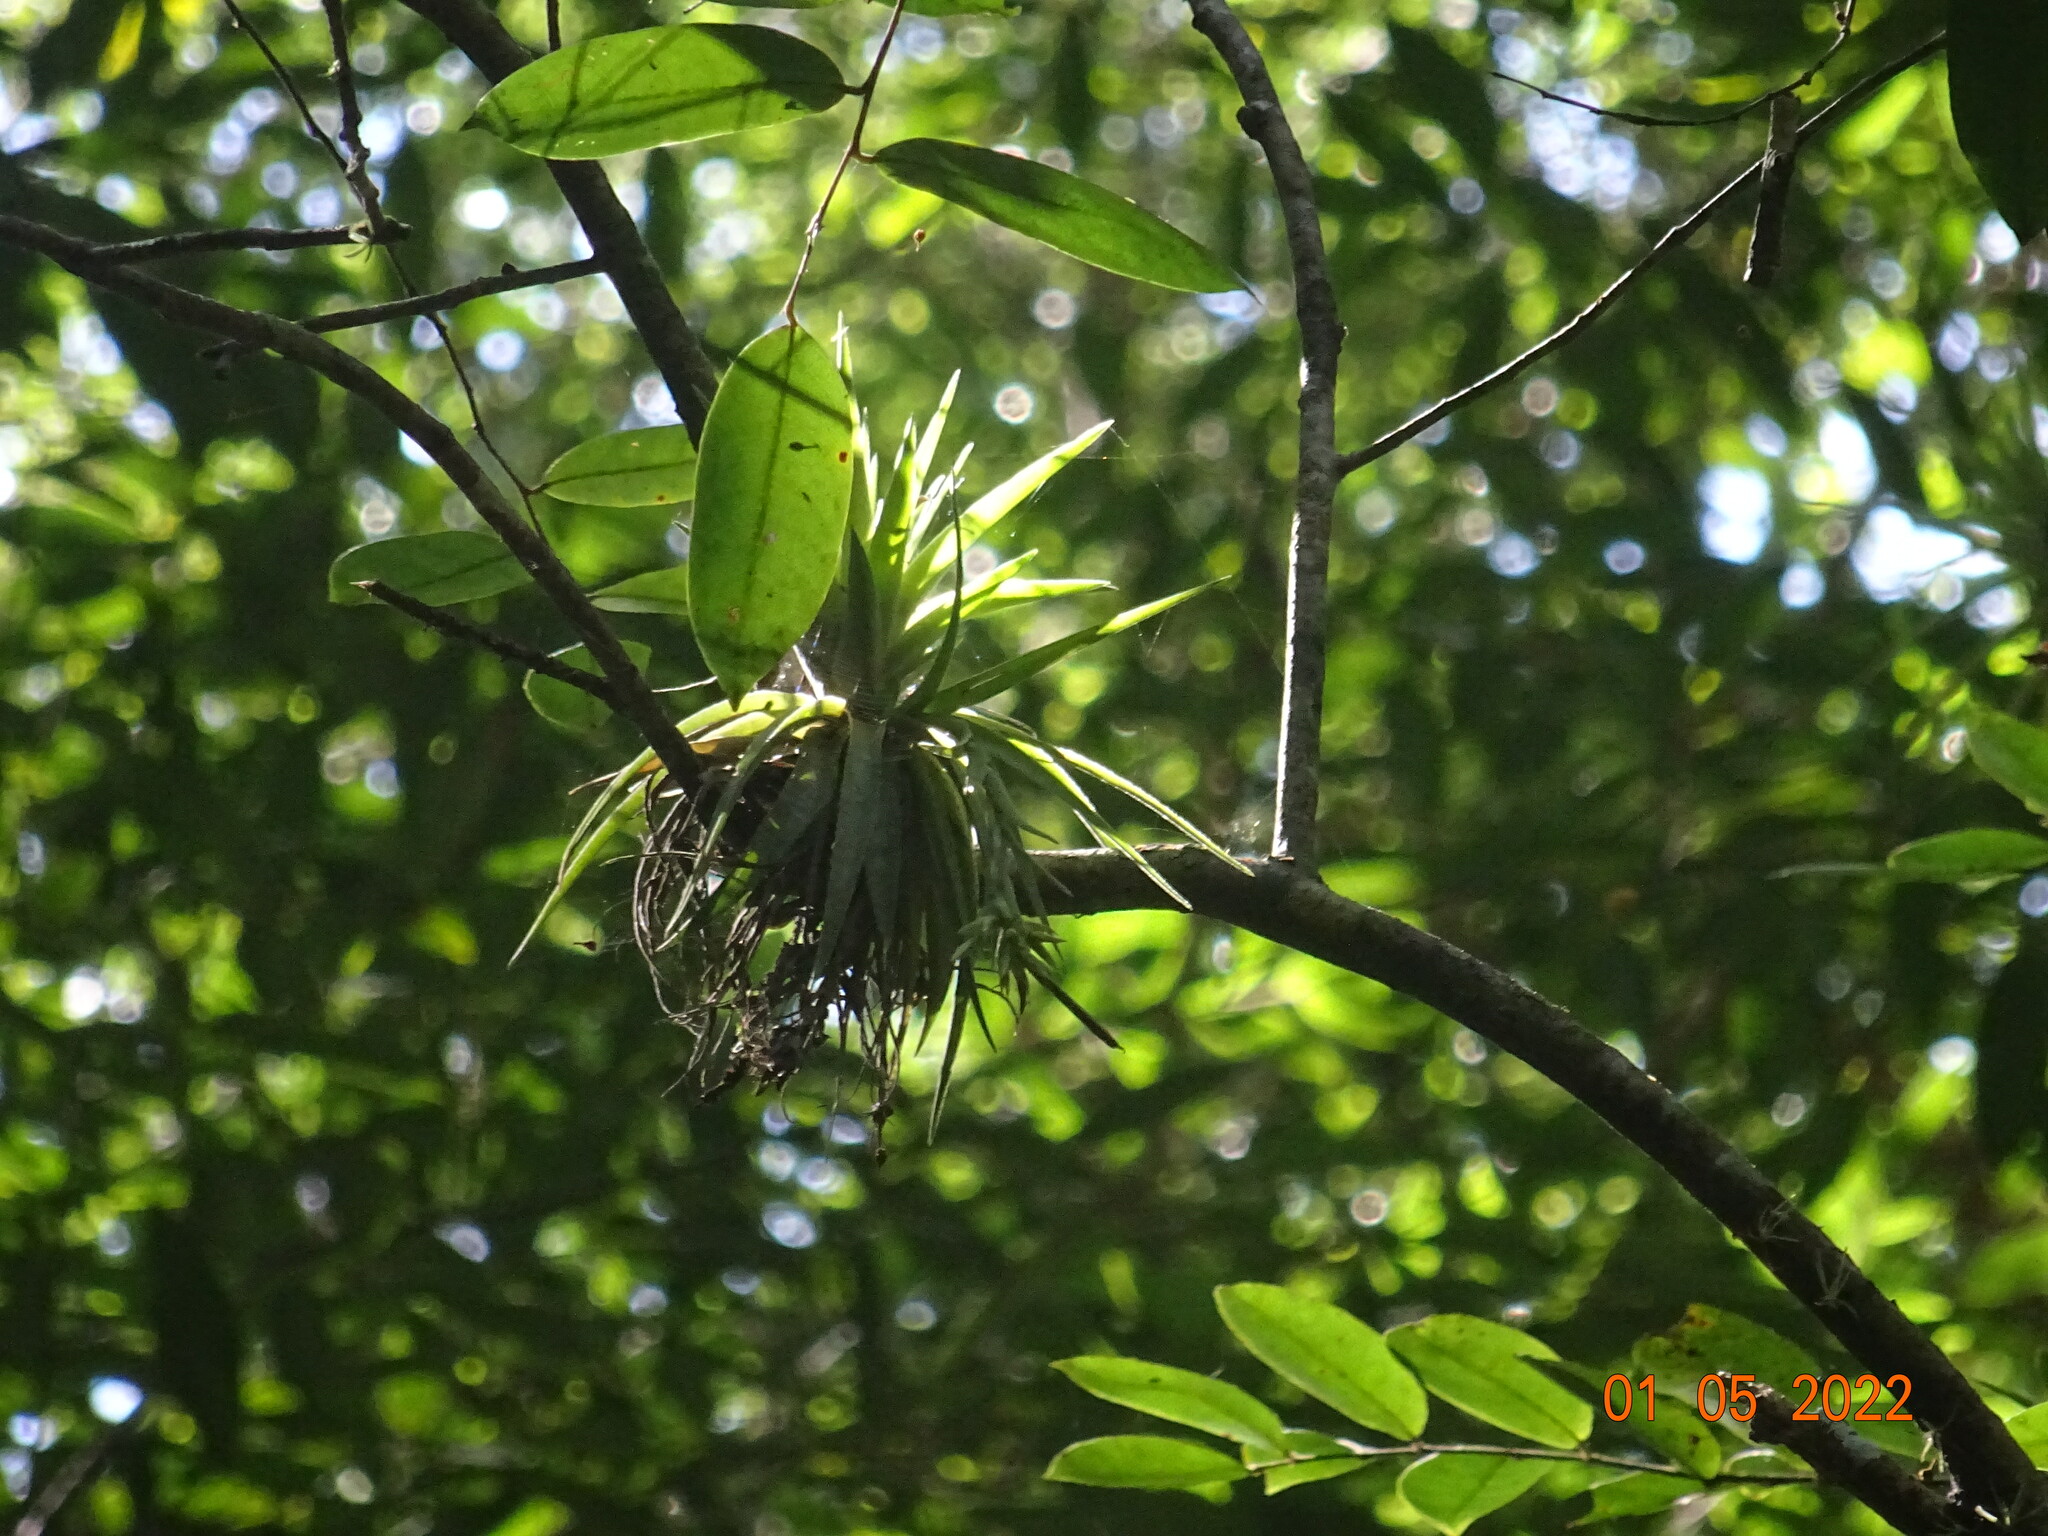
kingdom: Plantae
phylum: Tracheophyta
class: Liliopsida
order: Poales
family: Bromeliaceae
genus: Tillandsia
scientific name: Tillandsia geminiflora
